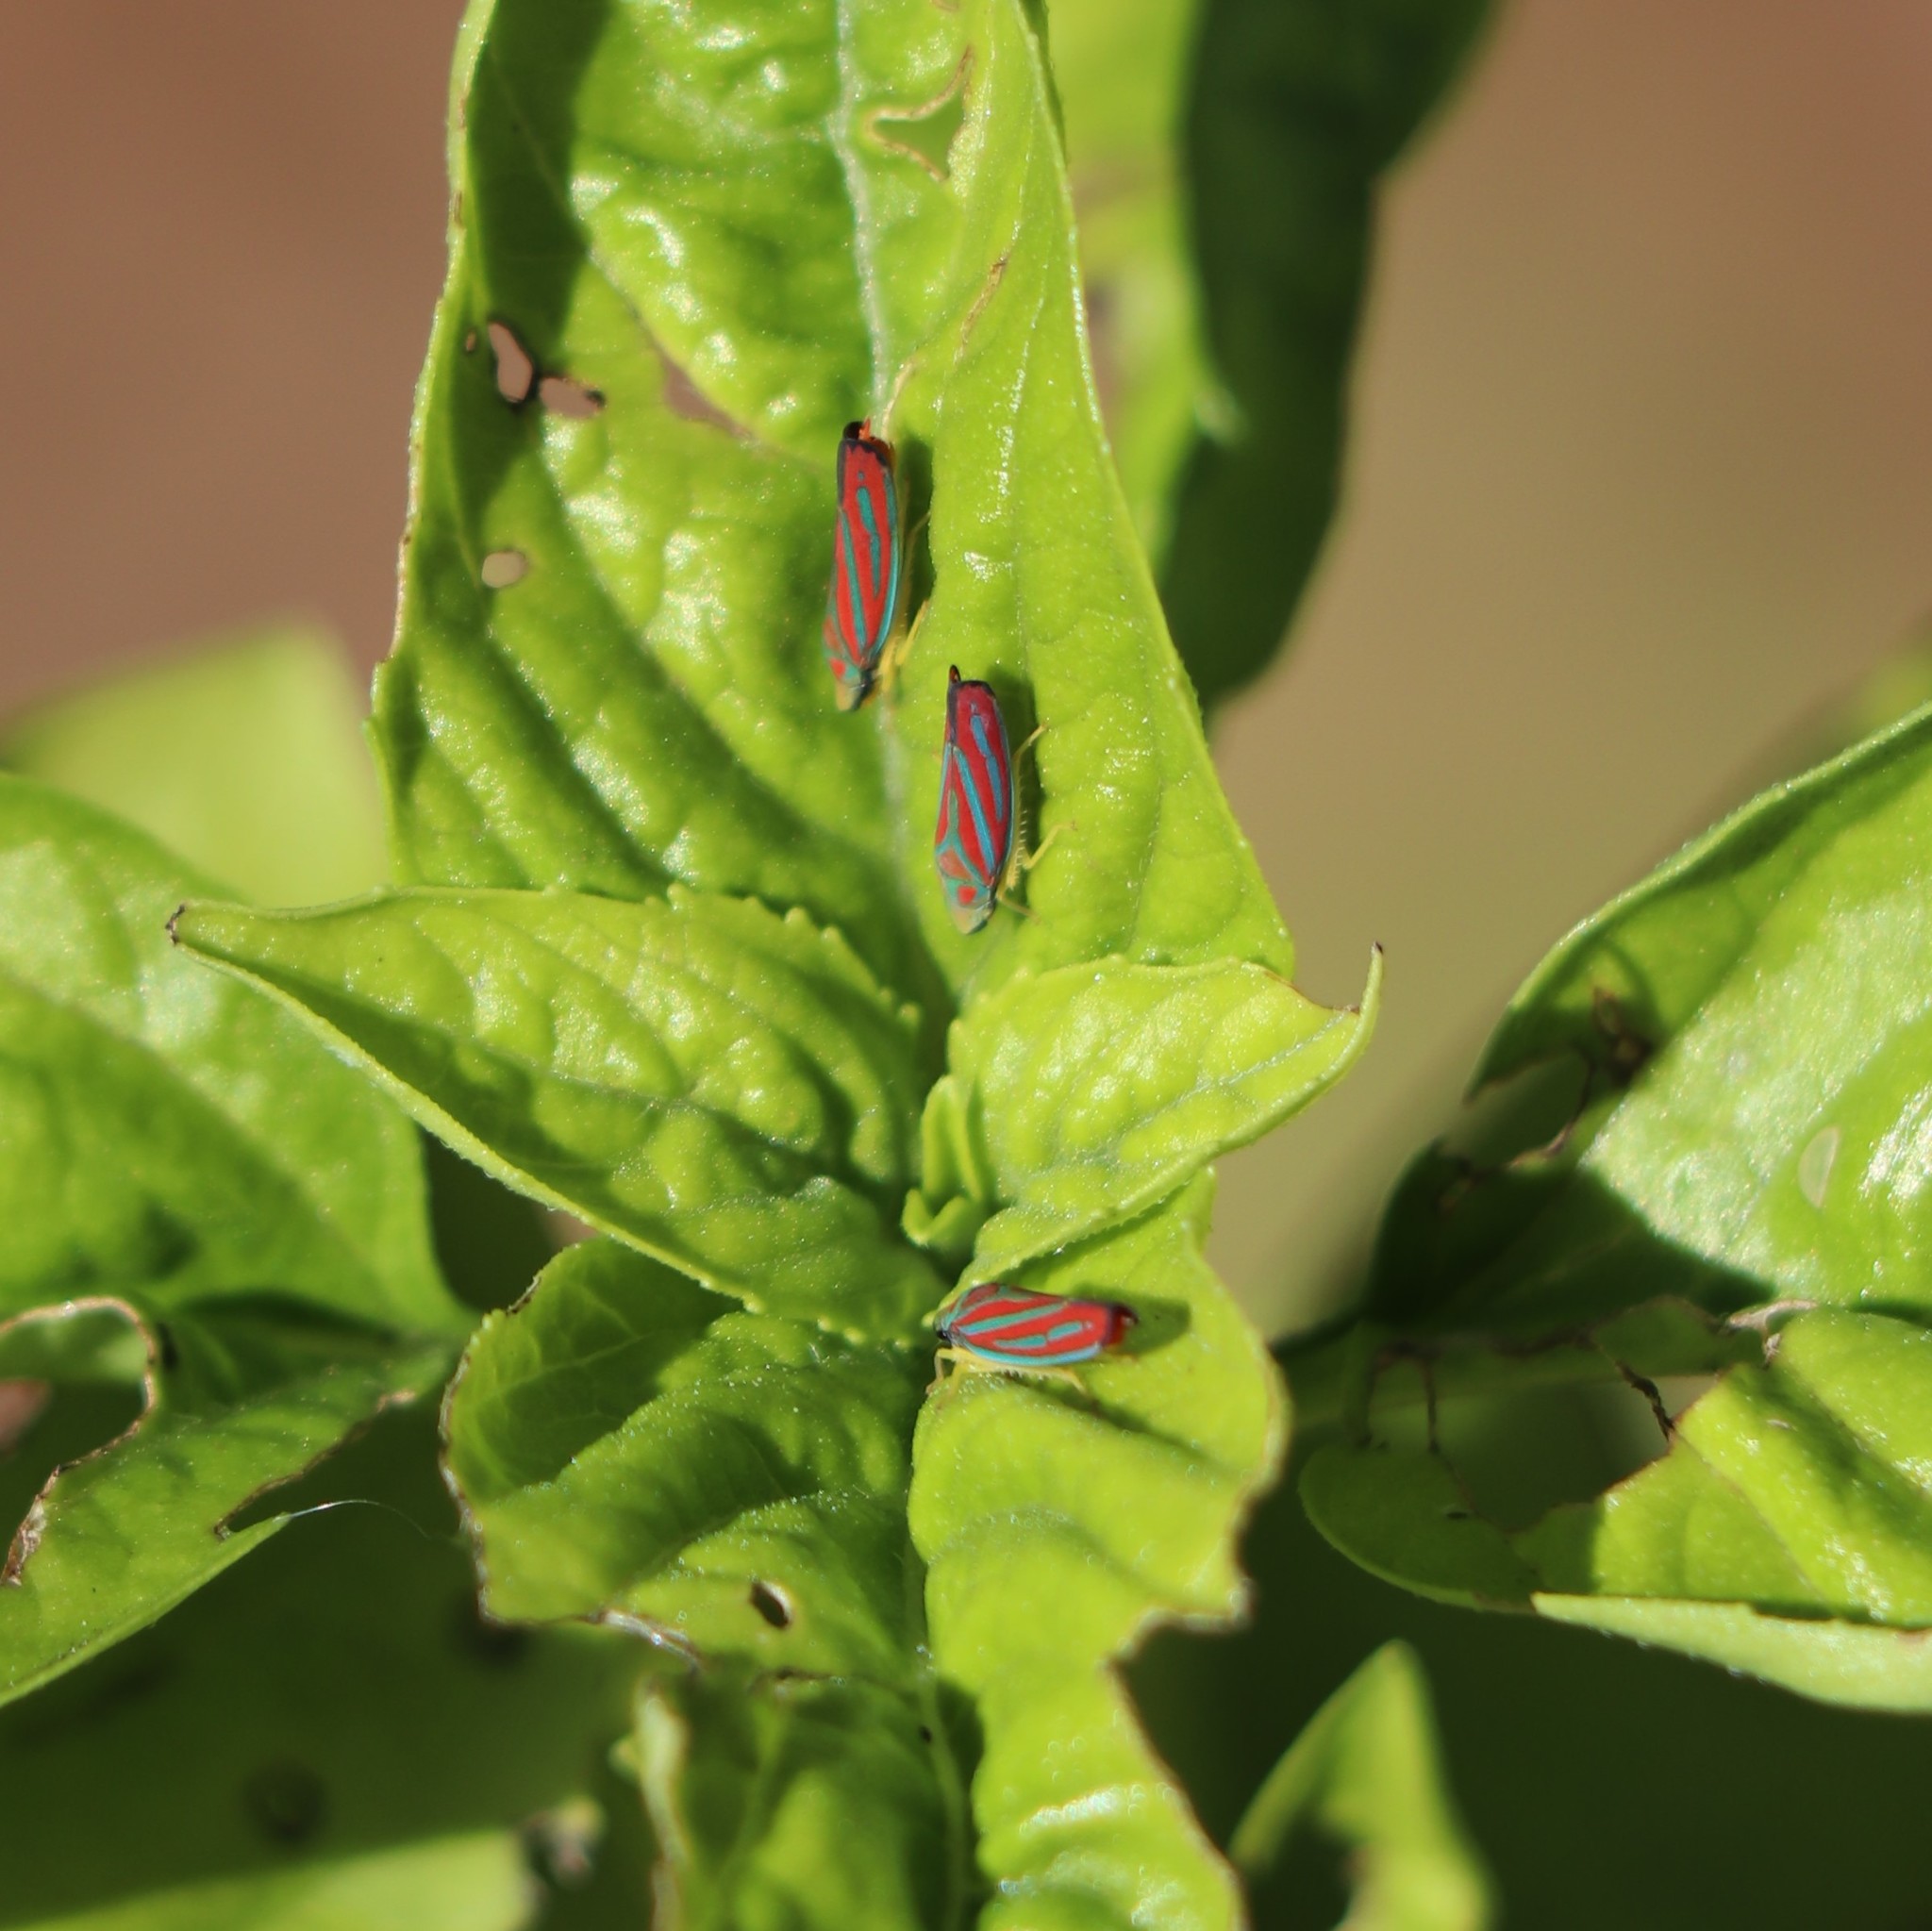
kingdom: Animalia
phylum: Arthropoda
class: Insecta
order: Hemiptera
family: Cicadellidae
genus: Graphocephala
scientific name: Graphocephala coccinea
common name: Candy-striped leafhopper
